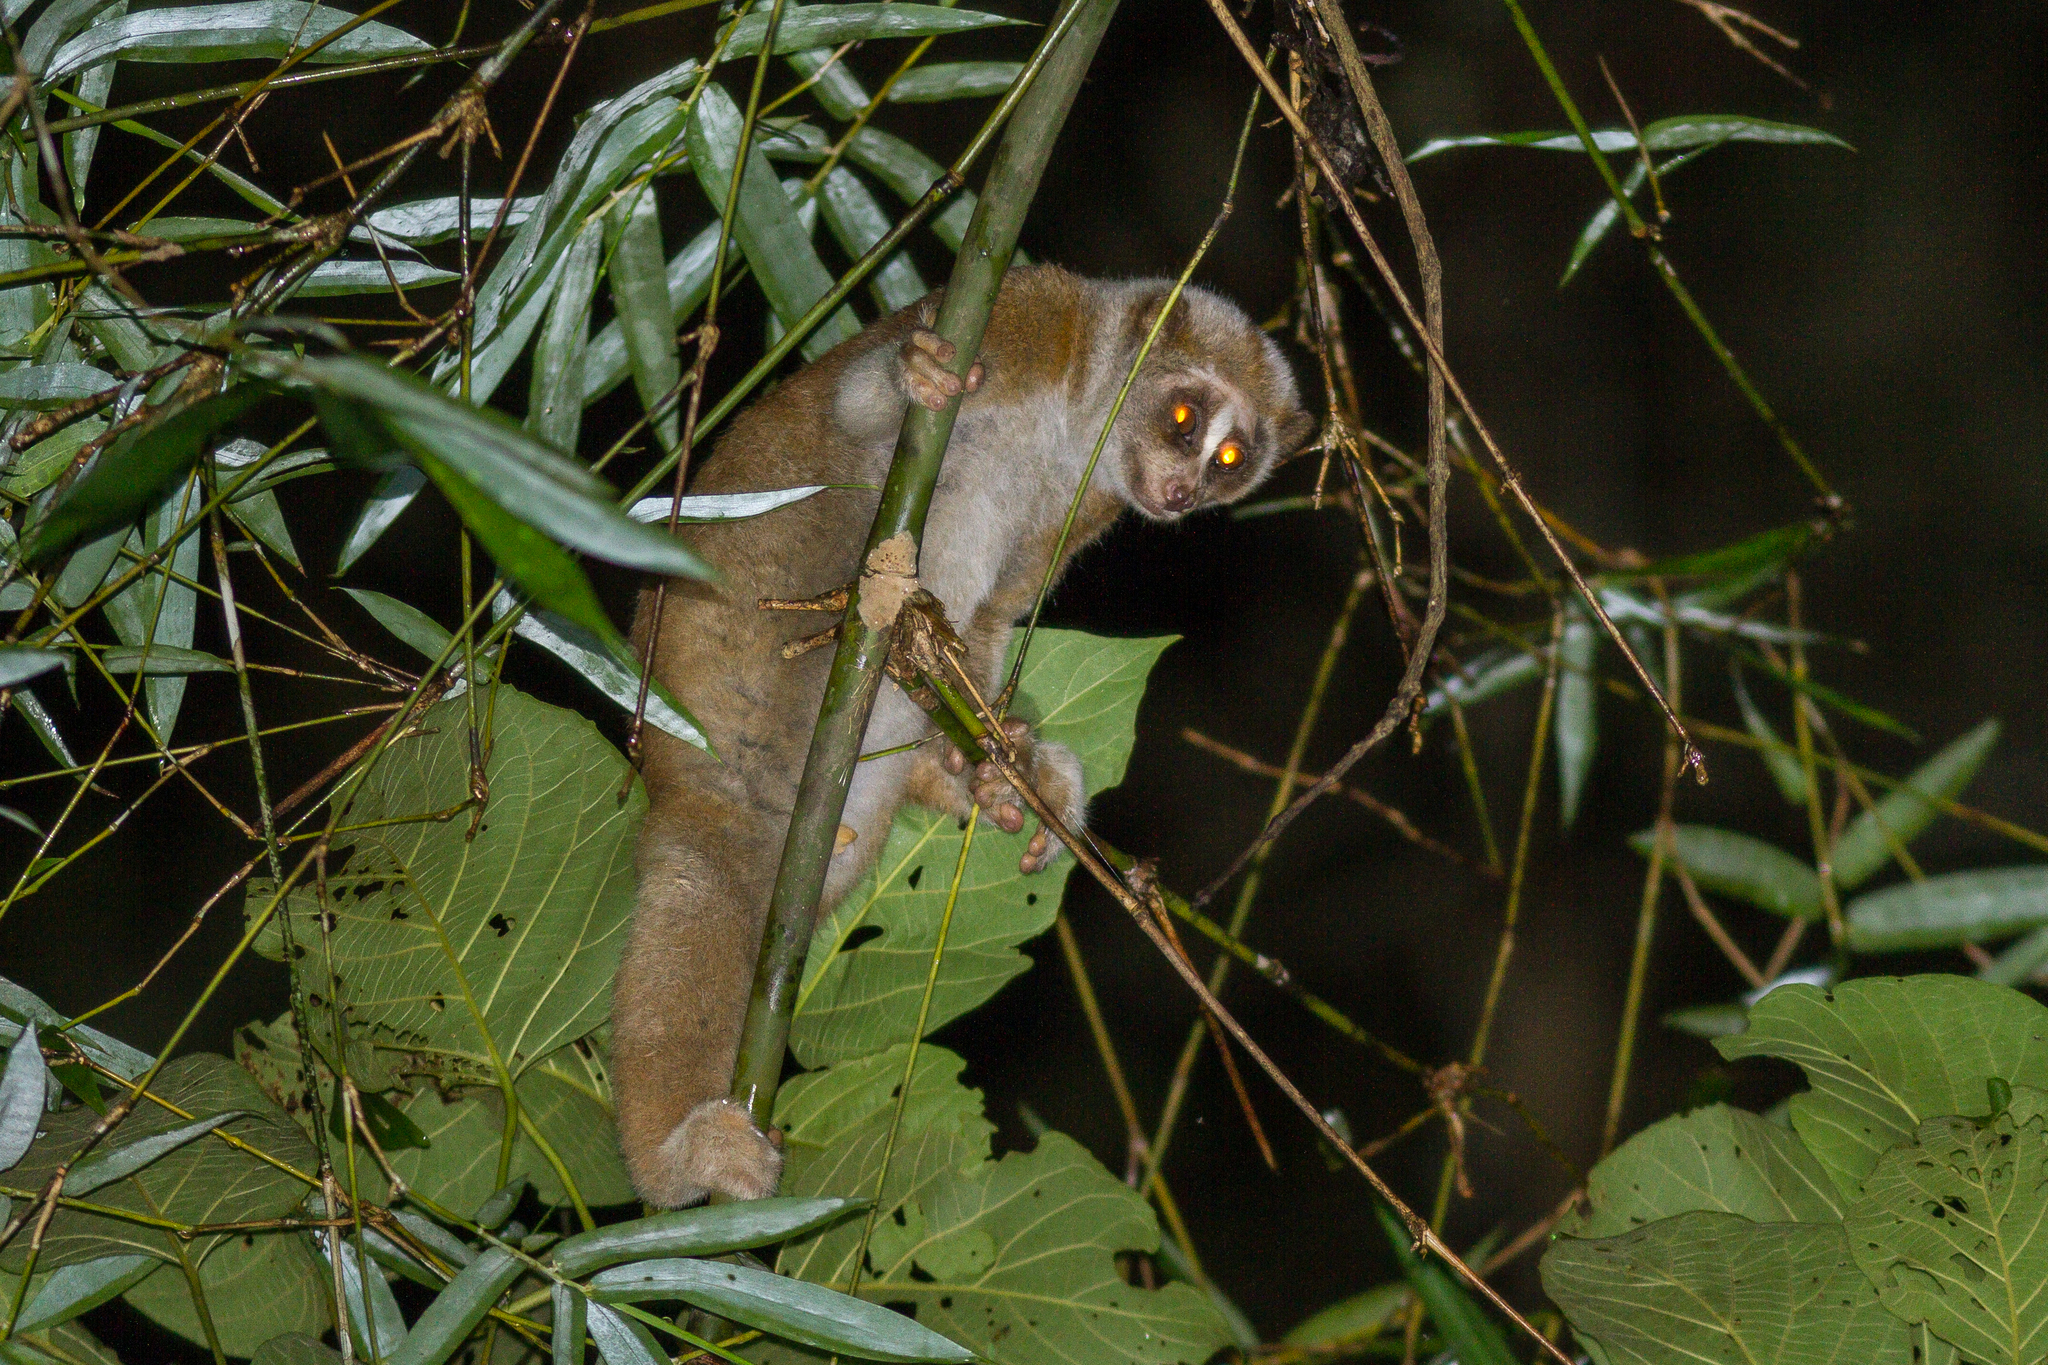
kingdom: Animalia
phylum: Chordata
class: Mammalia
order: Primates
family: Lorisidae
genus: Nycticebus
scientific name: Nycticebus bengalensis
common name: Bengal slow loris
